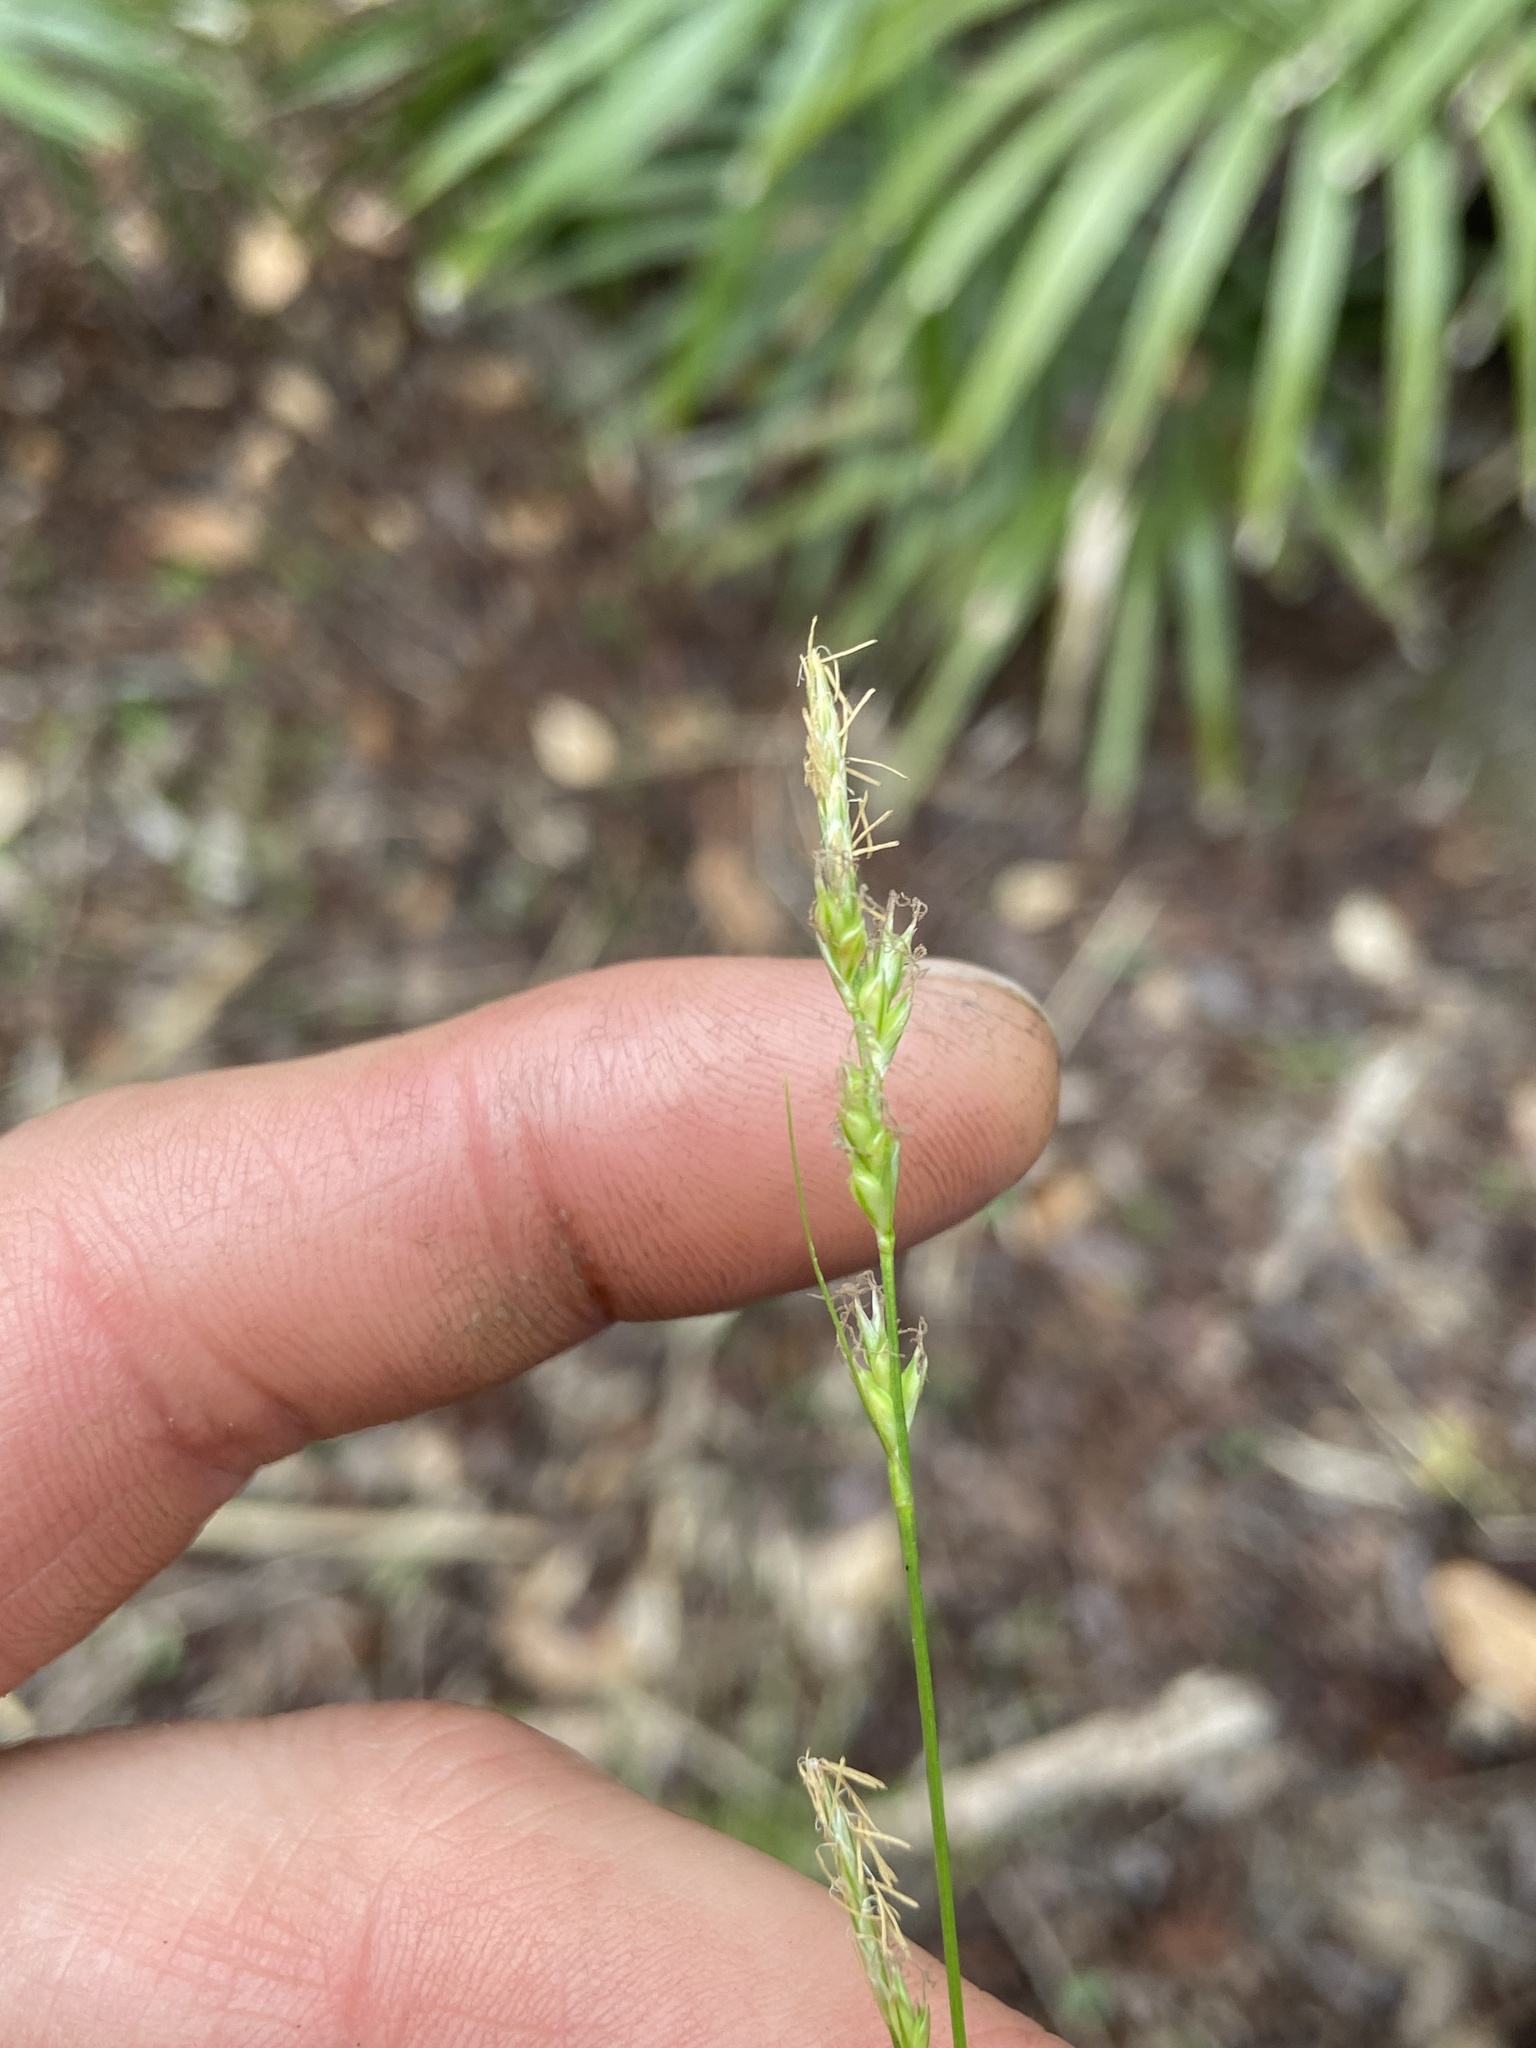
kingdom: Plantae
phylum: Tracheophyta
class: Liliopsida
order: Poales
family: Cyperaceae
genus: Carex
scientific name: Carex albicans
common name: Bellow-beaked sedge
